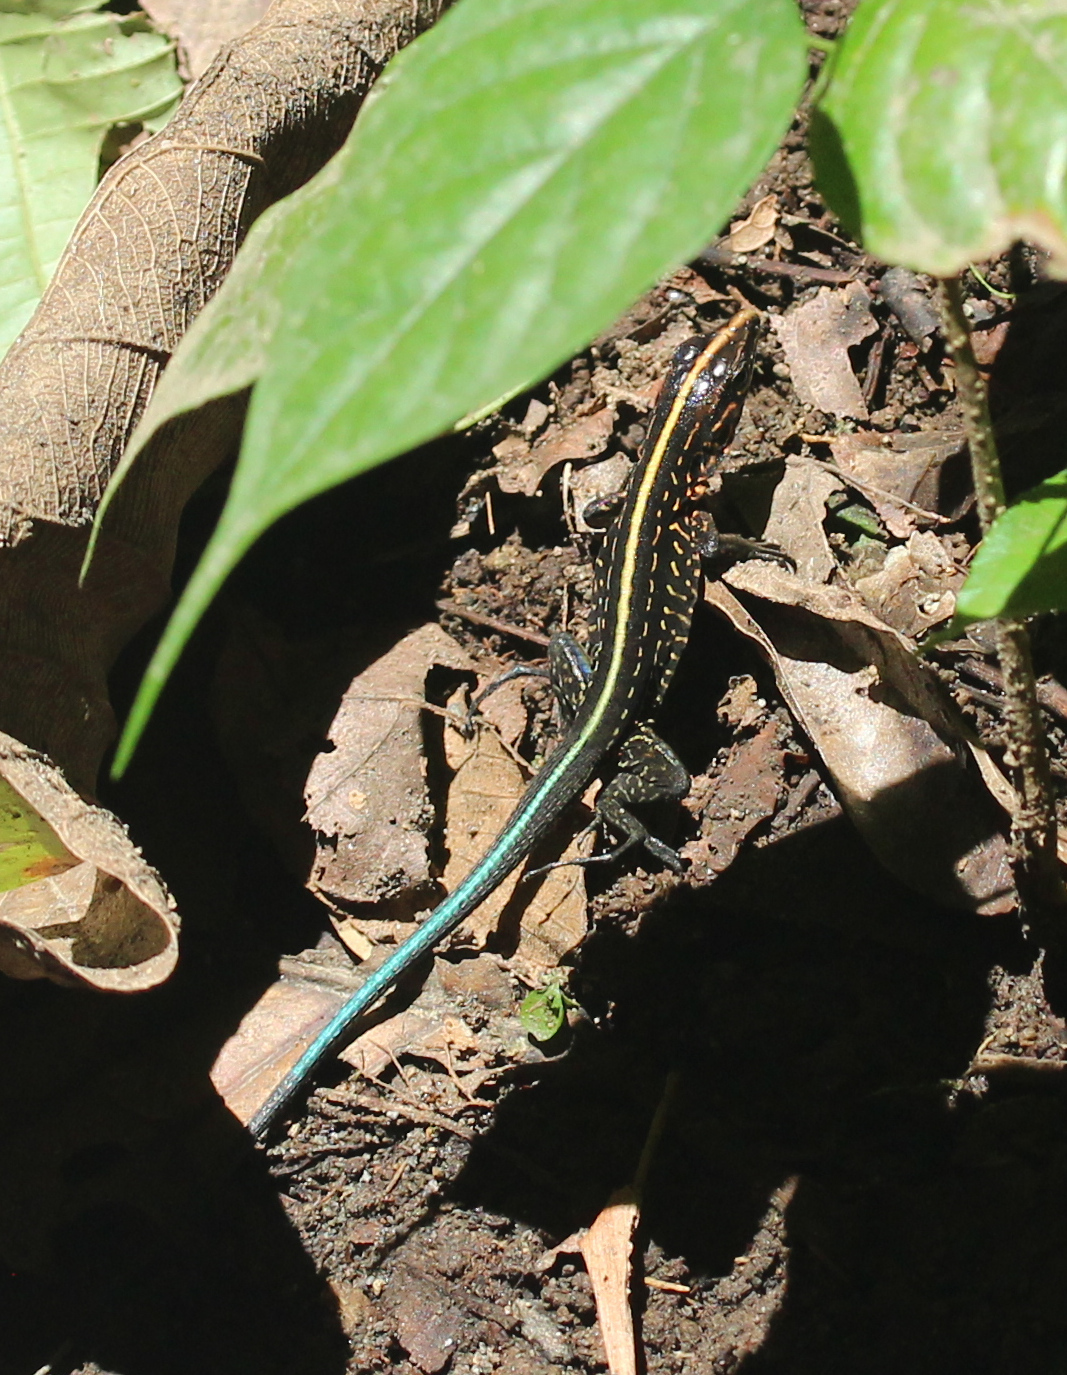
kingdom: Animalia
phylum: Chordata
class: Squamata
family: Teiidae
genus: Holcosus
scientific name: Holcosus festivus
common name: Middle american ameiva
